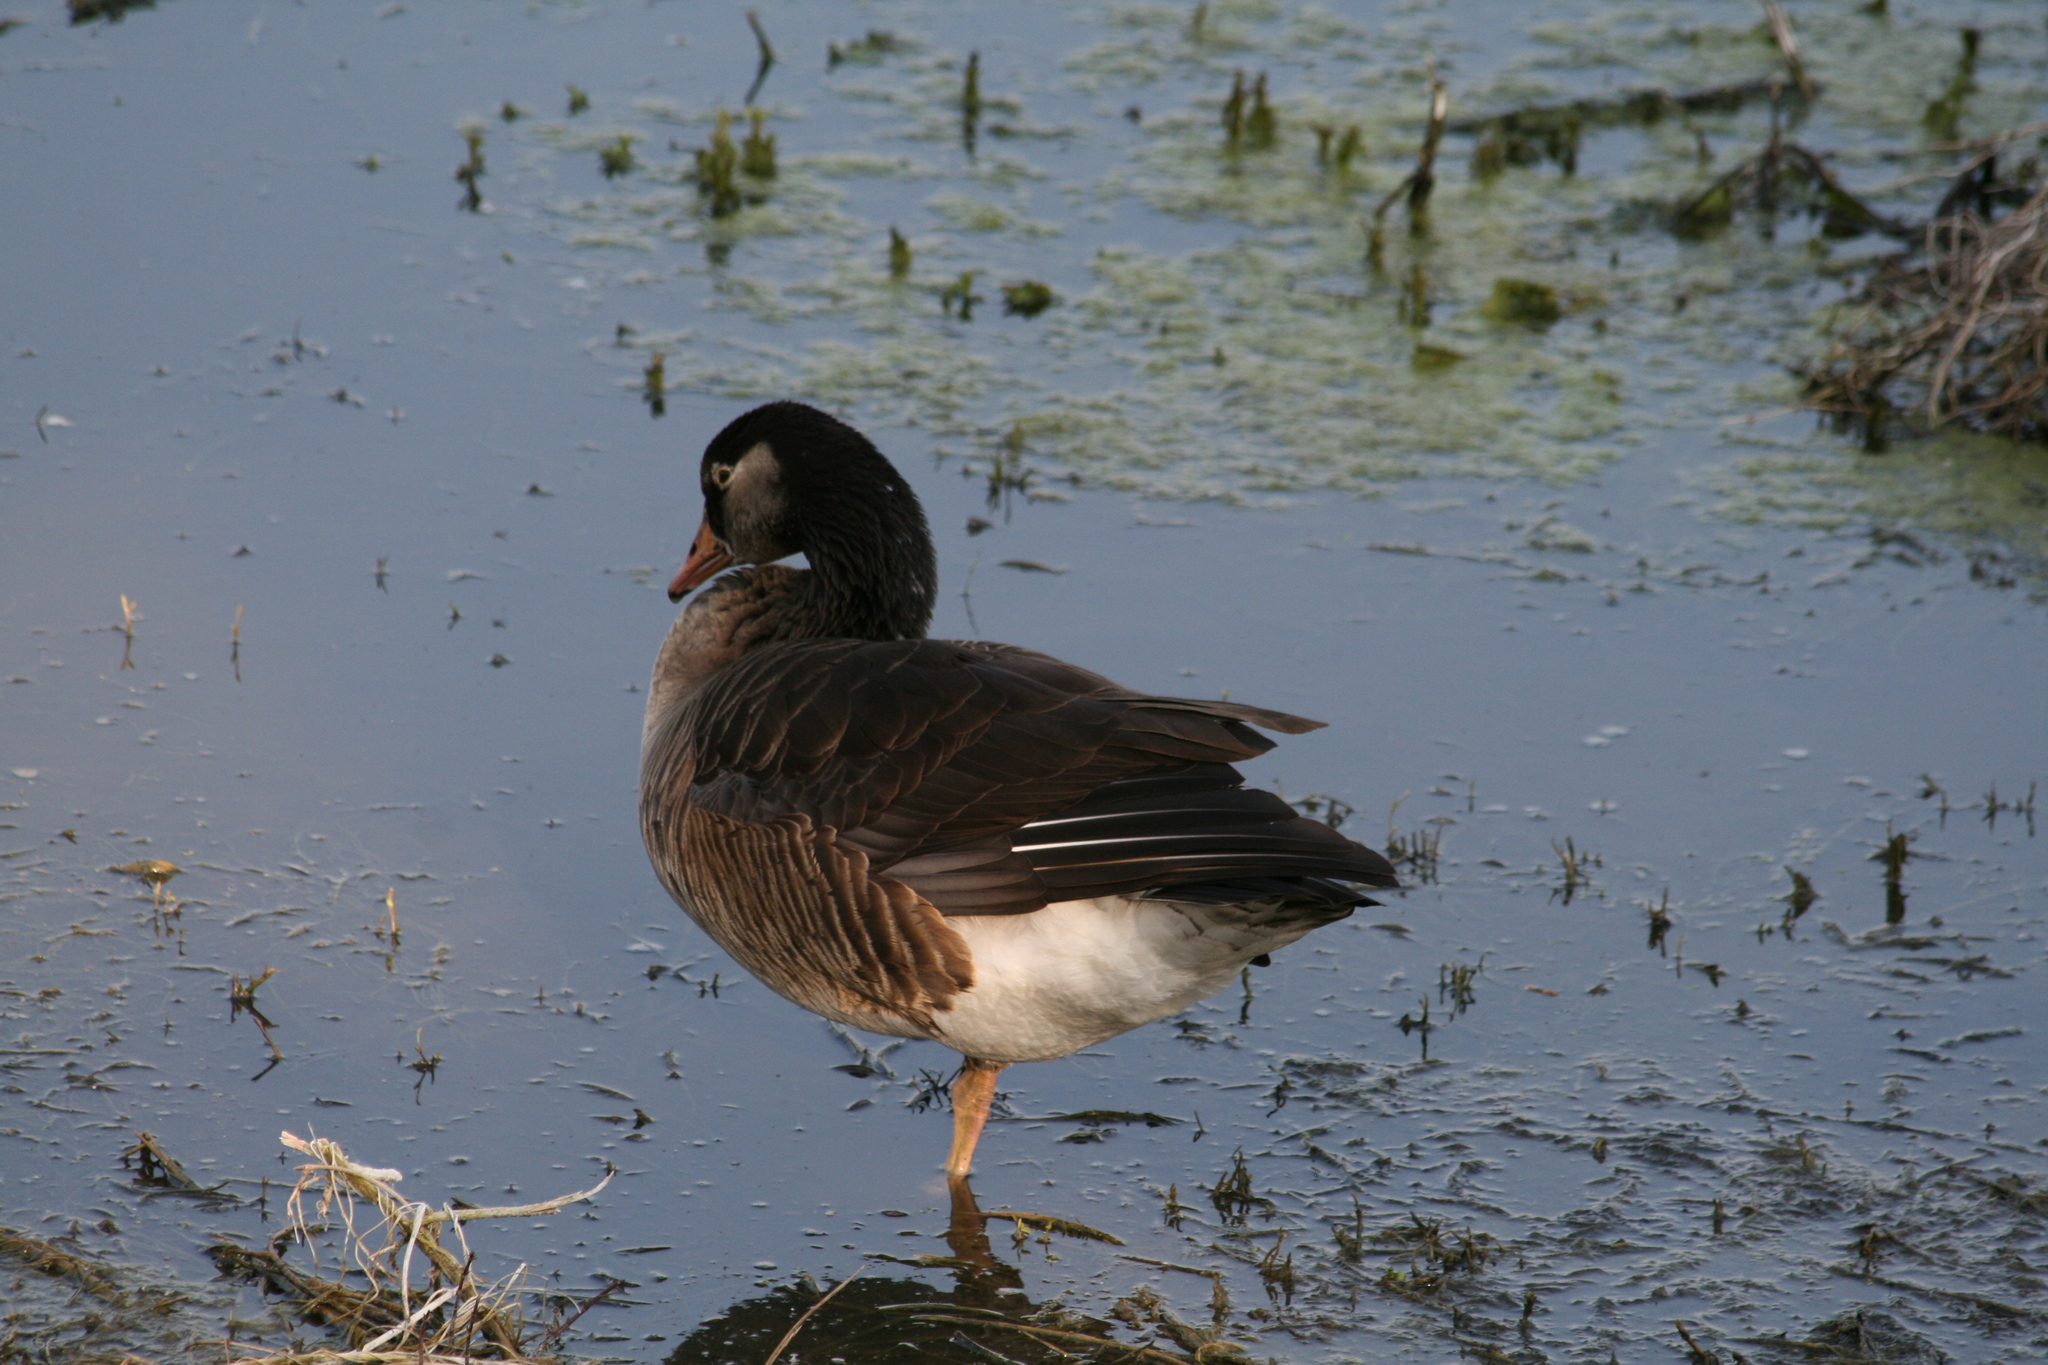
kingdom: Animalia
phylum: Chordata
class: Aves
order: Anseriformes
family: Anatidae
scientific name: Anatidae
